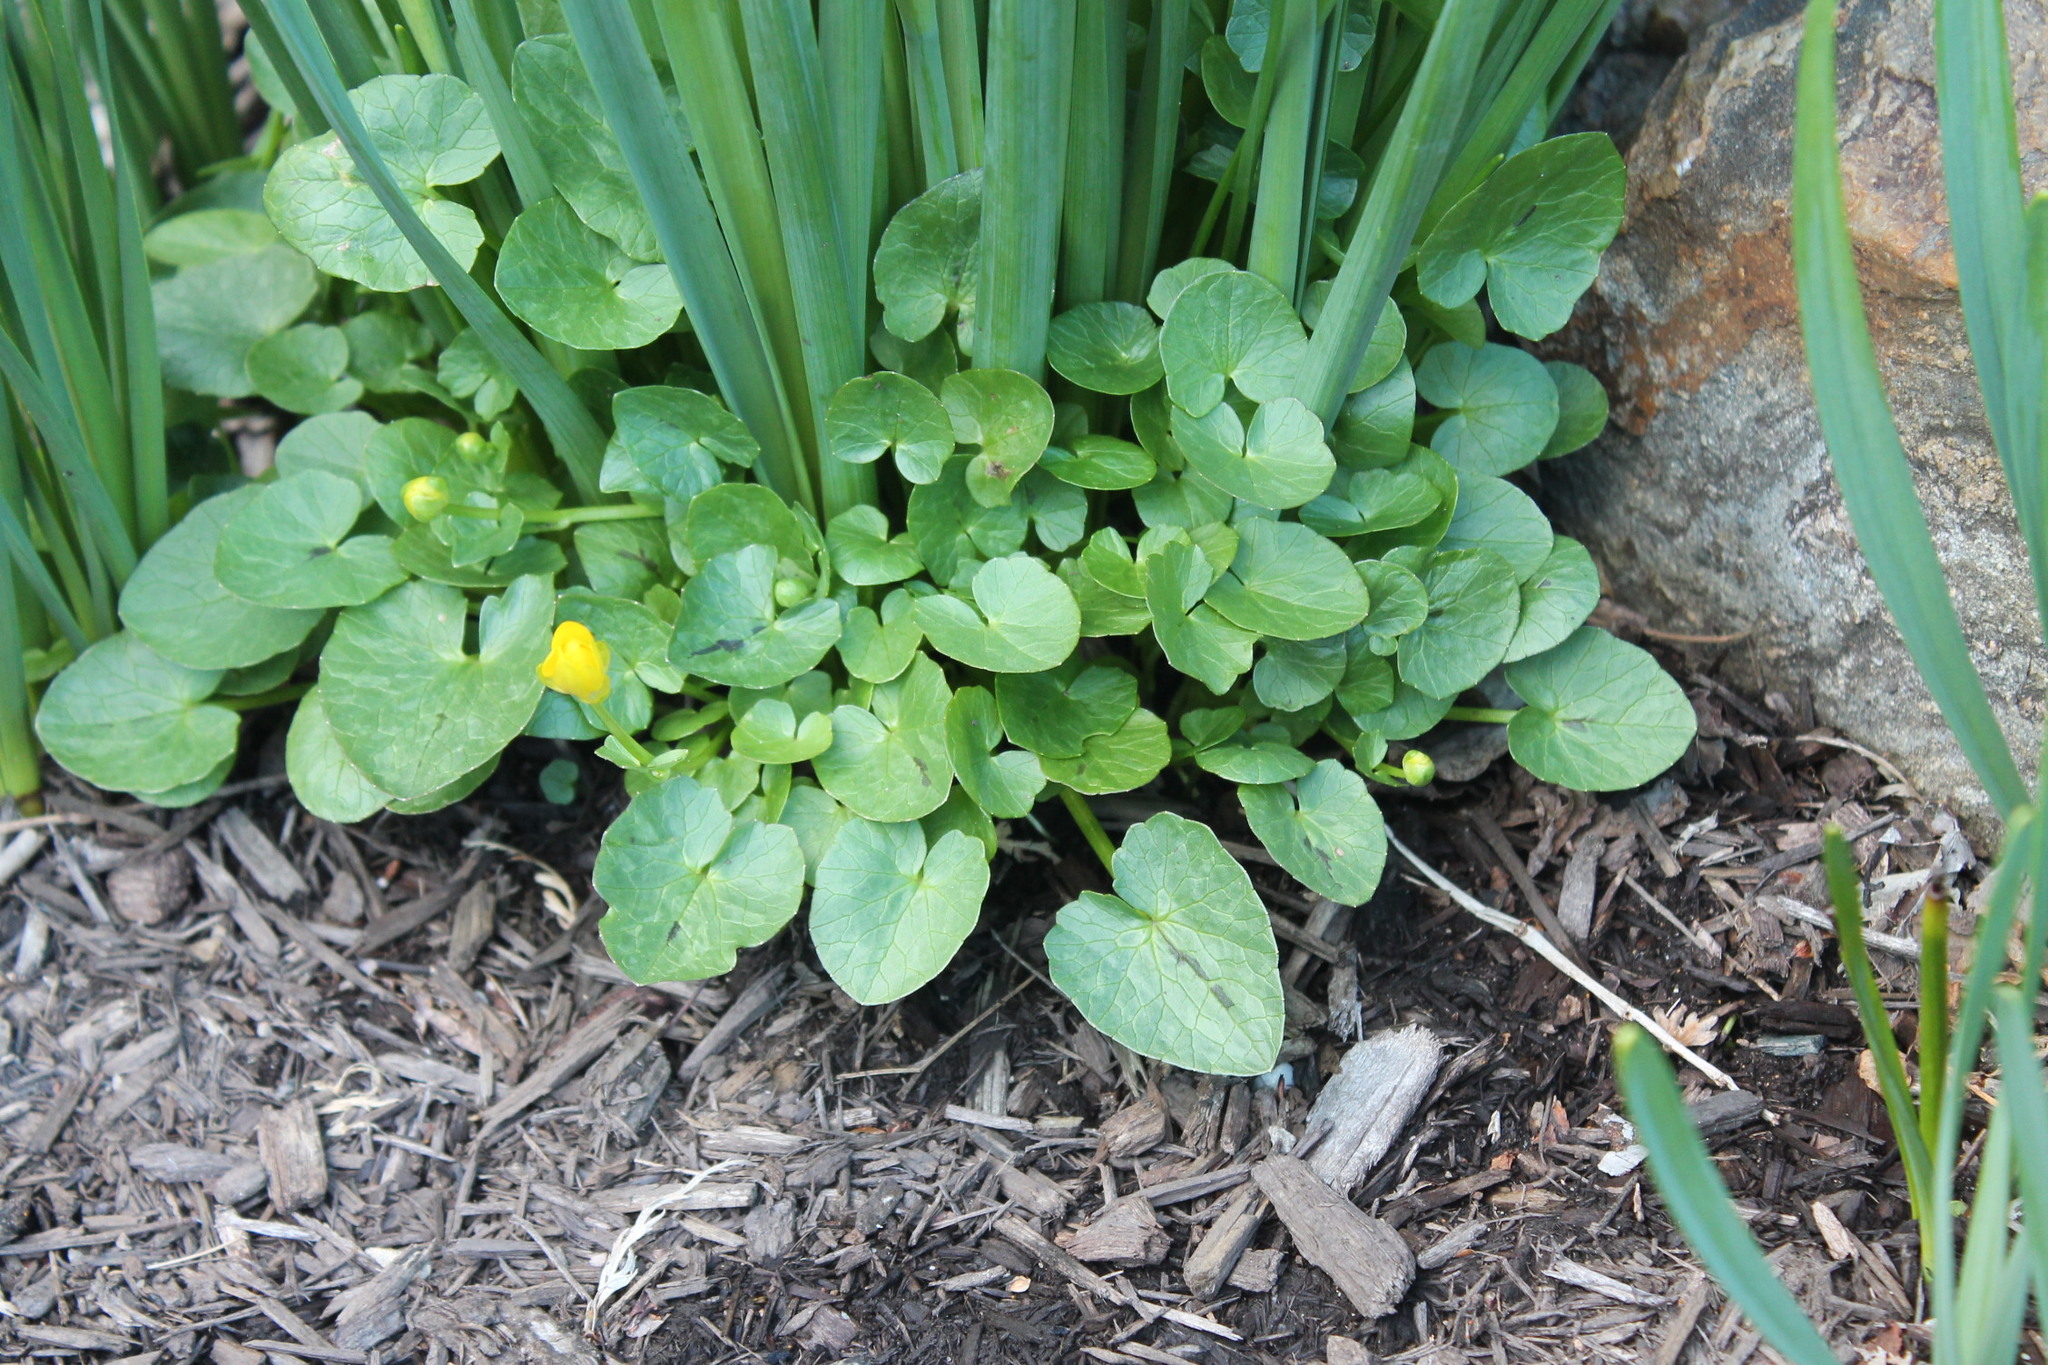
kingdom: Plantae
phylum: Tracheophyta
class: Magnoliopsida
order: Ranunculales
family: Ranunculaceae
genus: Ficaria
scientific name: Ficaria verna
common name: Lesser celandine
